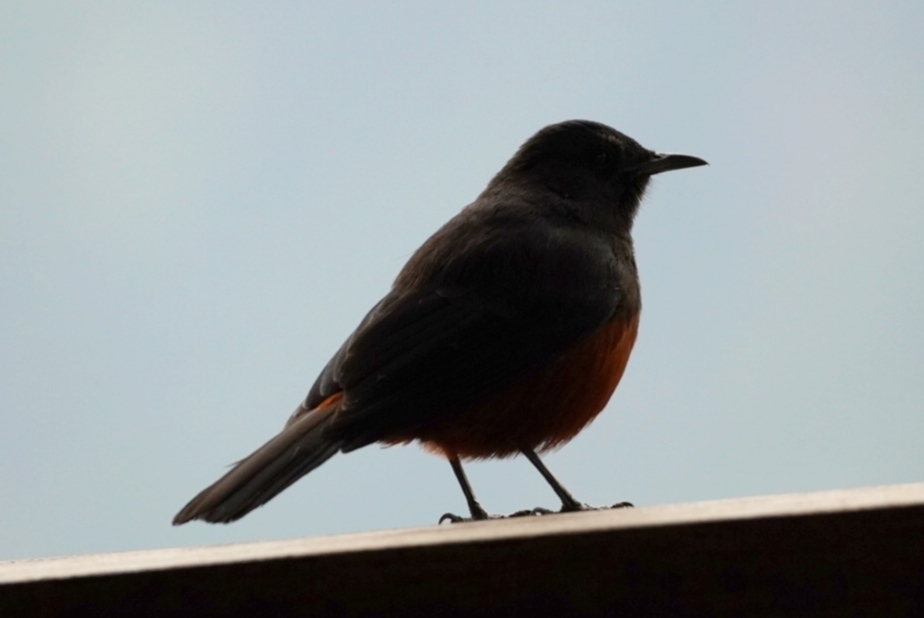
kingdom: Animalia
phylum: Chordata
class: Aves
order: Passeriformes
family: Muscicapidae
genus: Thamnolaea
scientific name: Thamnolaea cinnamomeiventris
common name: Mocking cliff chat
